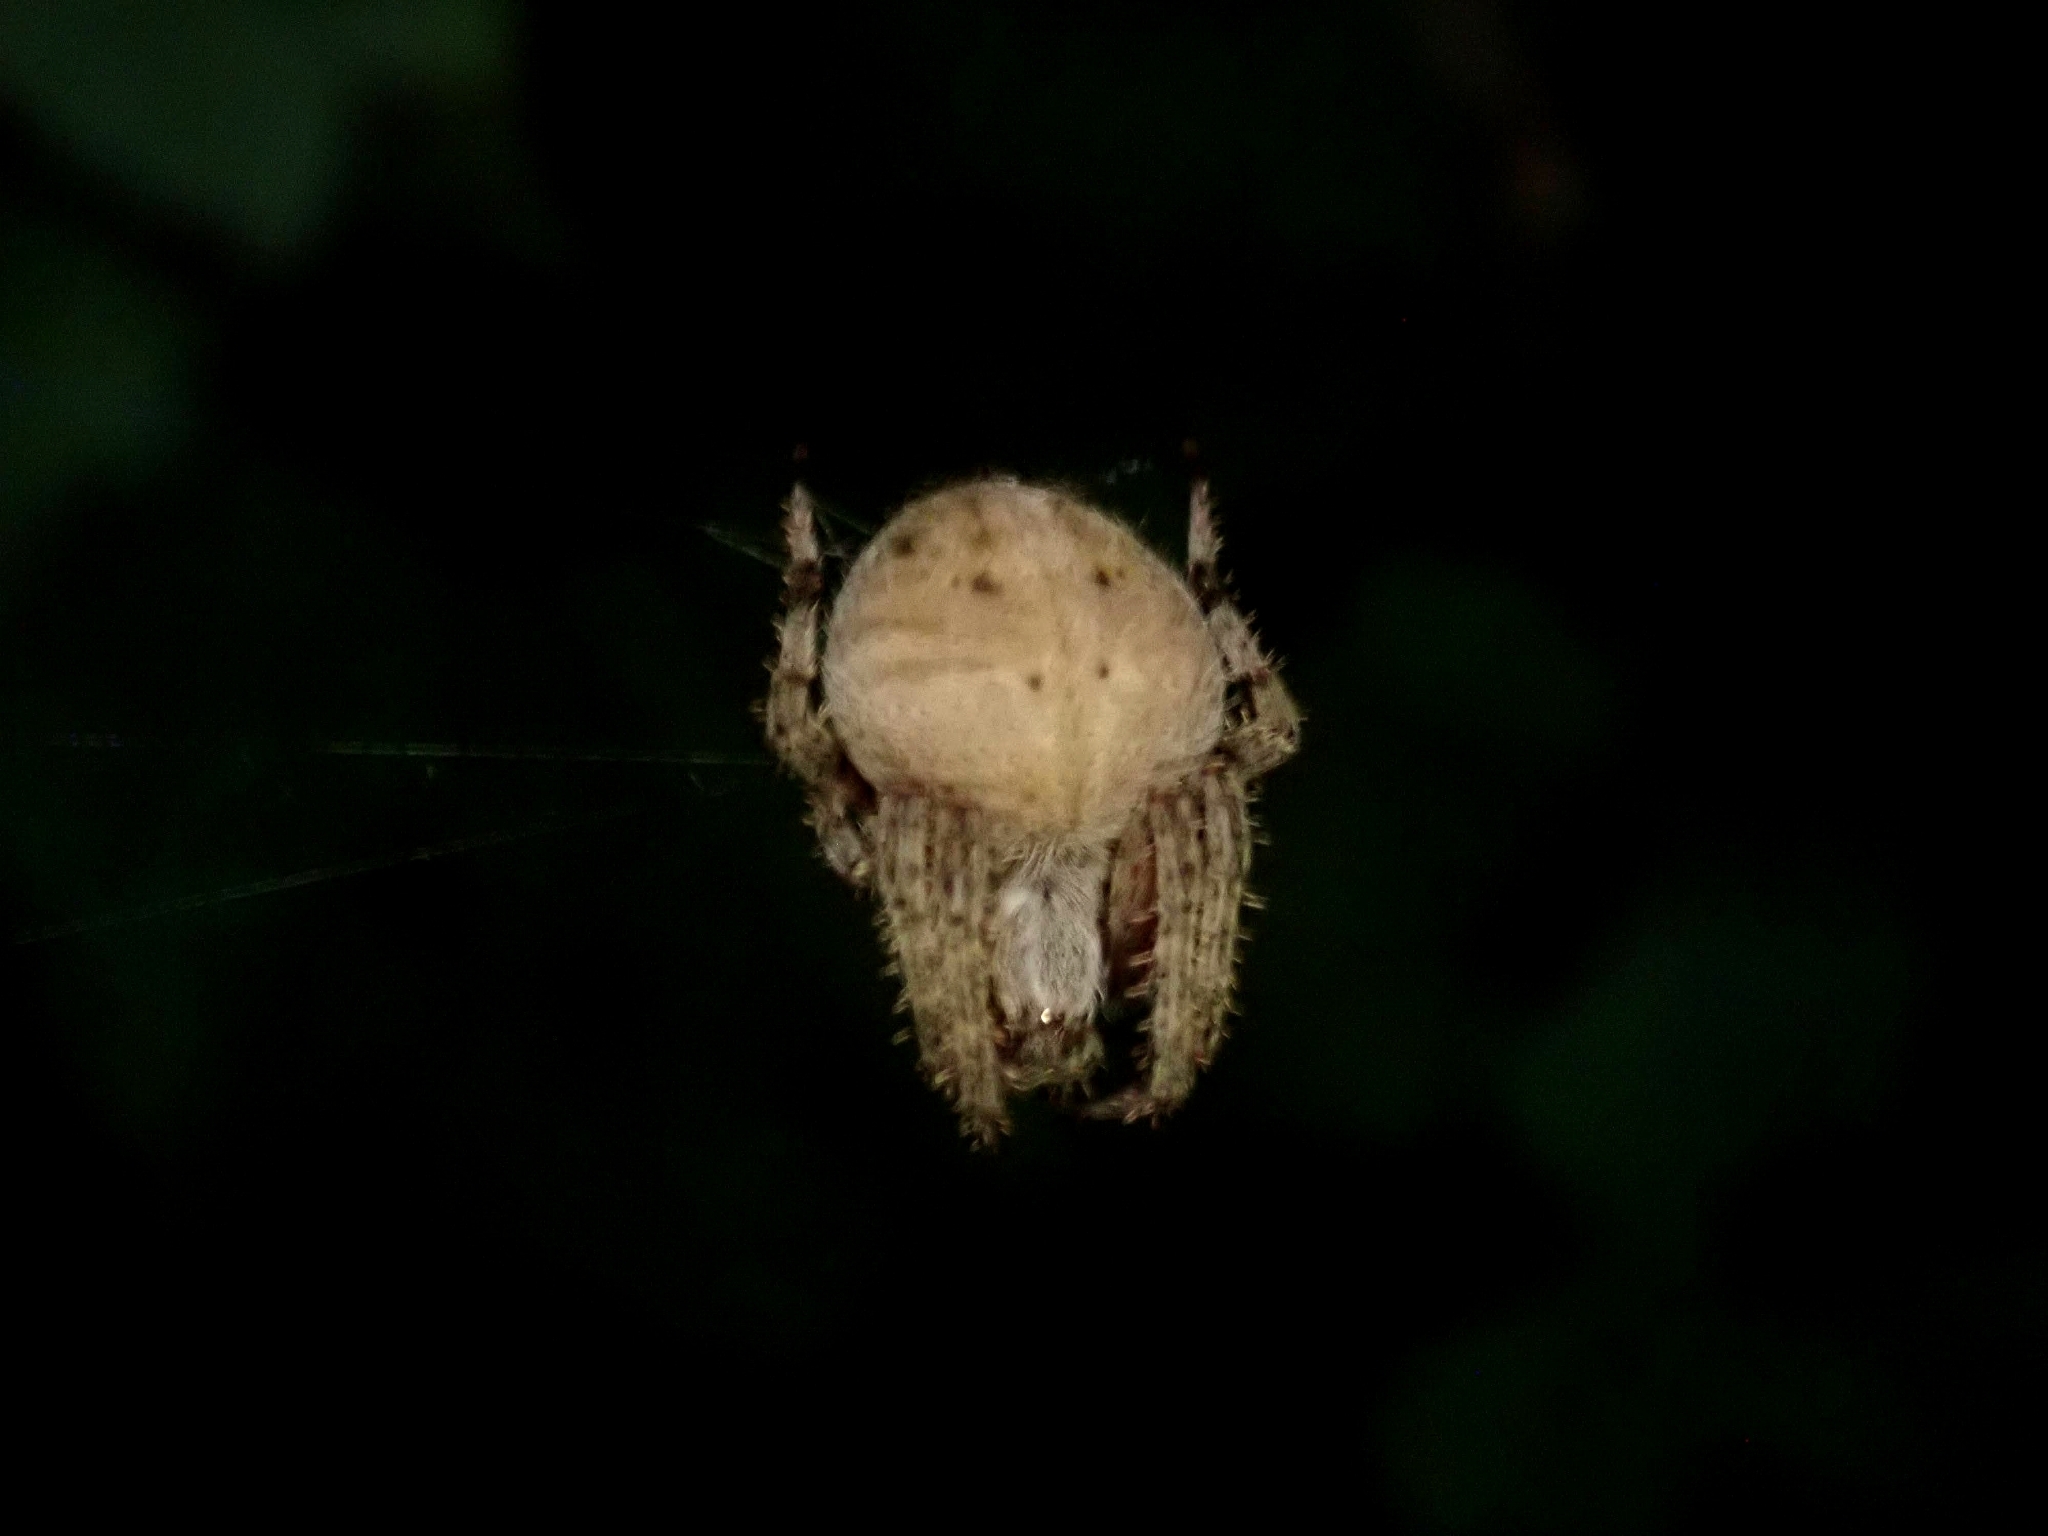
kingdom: Animalia
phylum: Arthropoda
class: Arachnida
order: Araneae
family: Araneidae
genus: Neoscona
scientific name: Neoscona crucifera
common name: Spotted orbweaver
